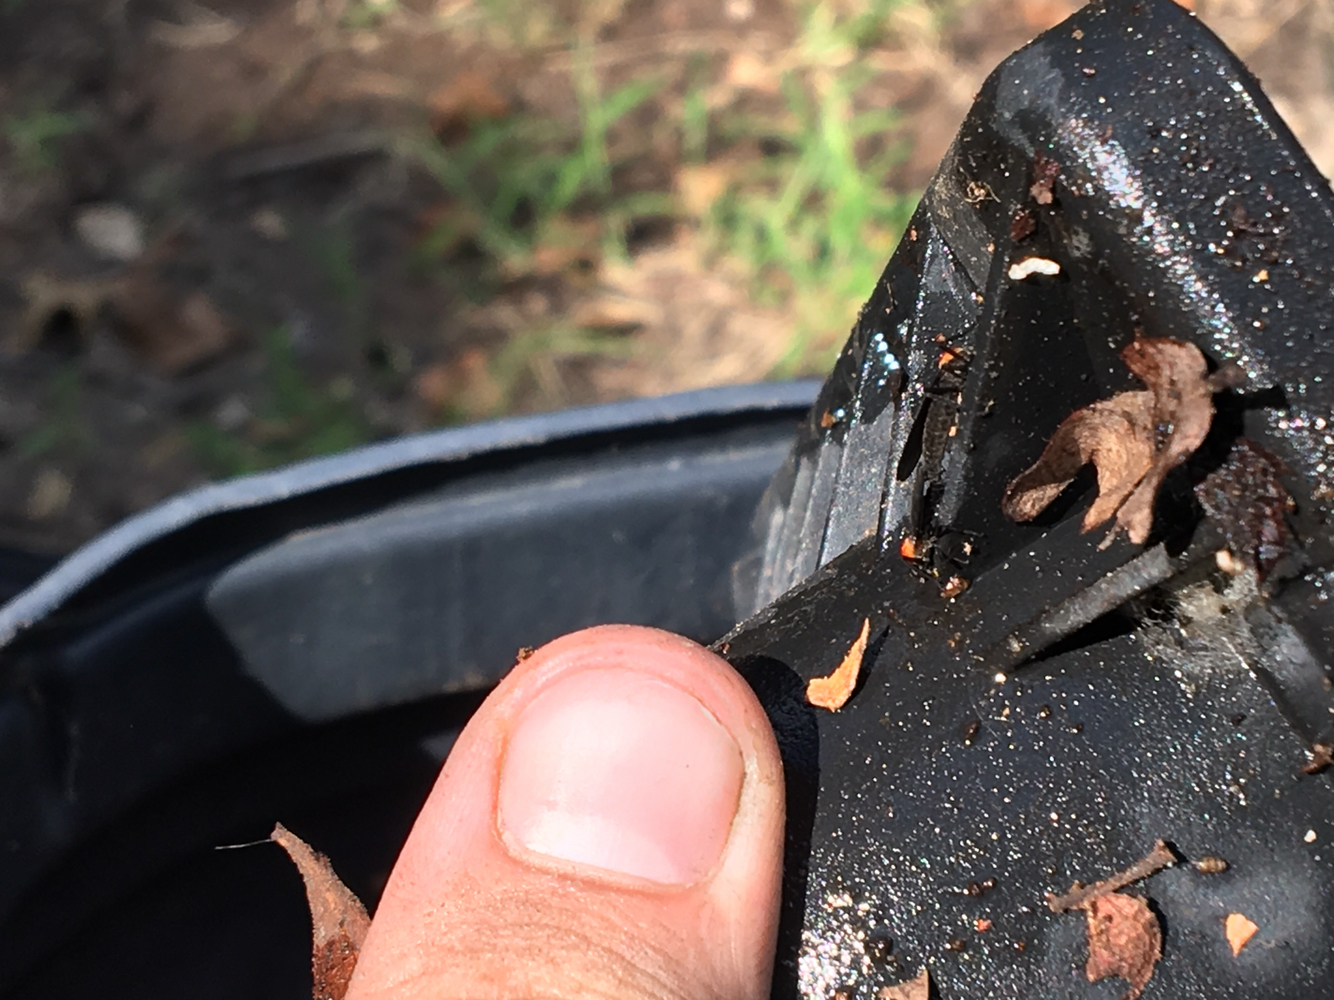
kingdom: Animalia
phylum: Arthropoda
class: Insecta
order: Diptera
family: Bibionidae
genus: Plecia
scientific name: Plecia nearctica
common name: March fly
